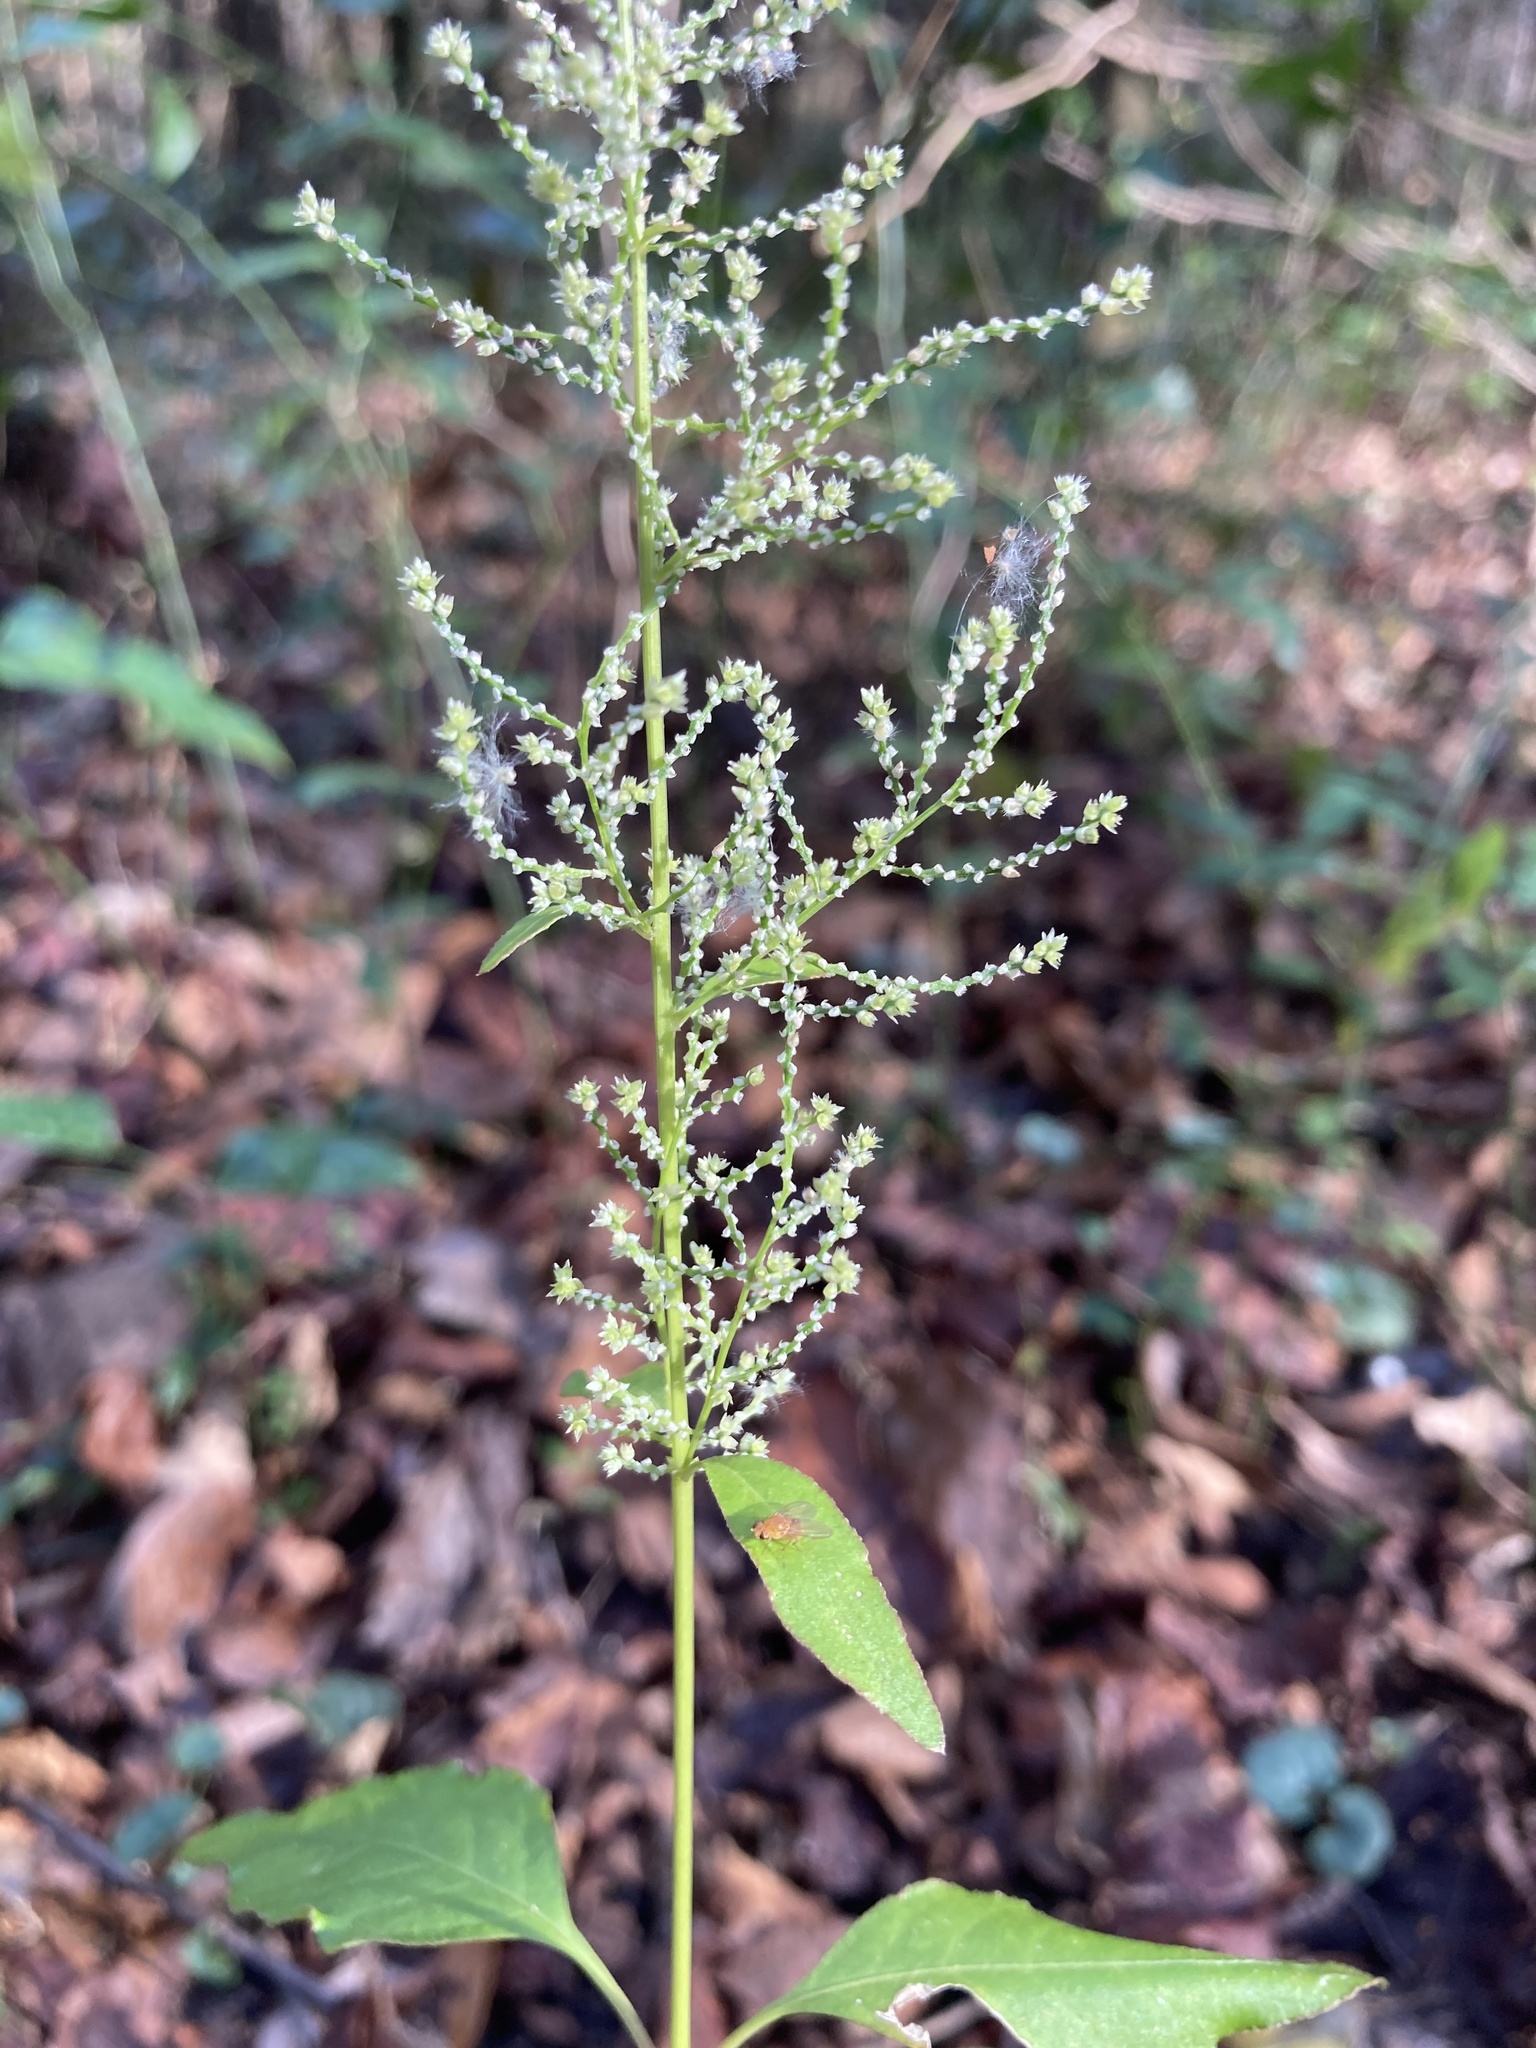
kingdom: Plantae
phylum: Tracheophyta
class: Magnoliopsida
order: Caryophyllales
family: Amaranthaceae
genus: Iresine
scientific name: Iresine diffusa
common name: Juba's-bush
